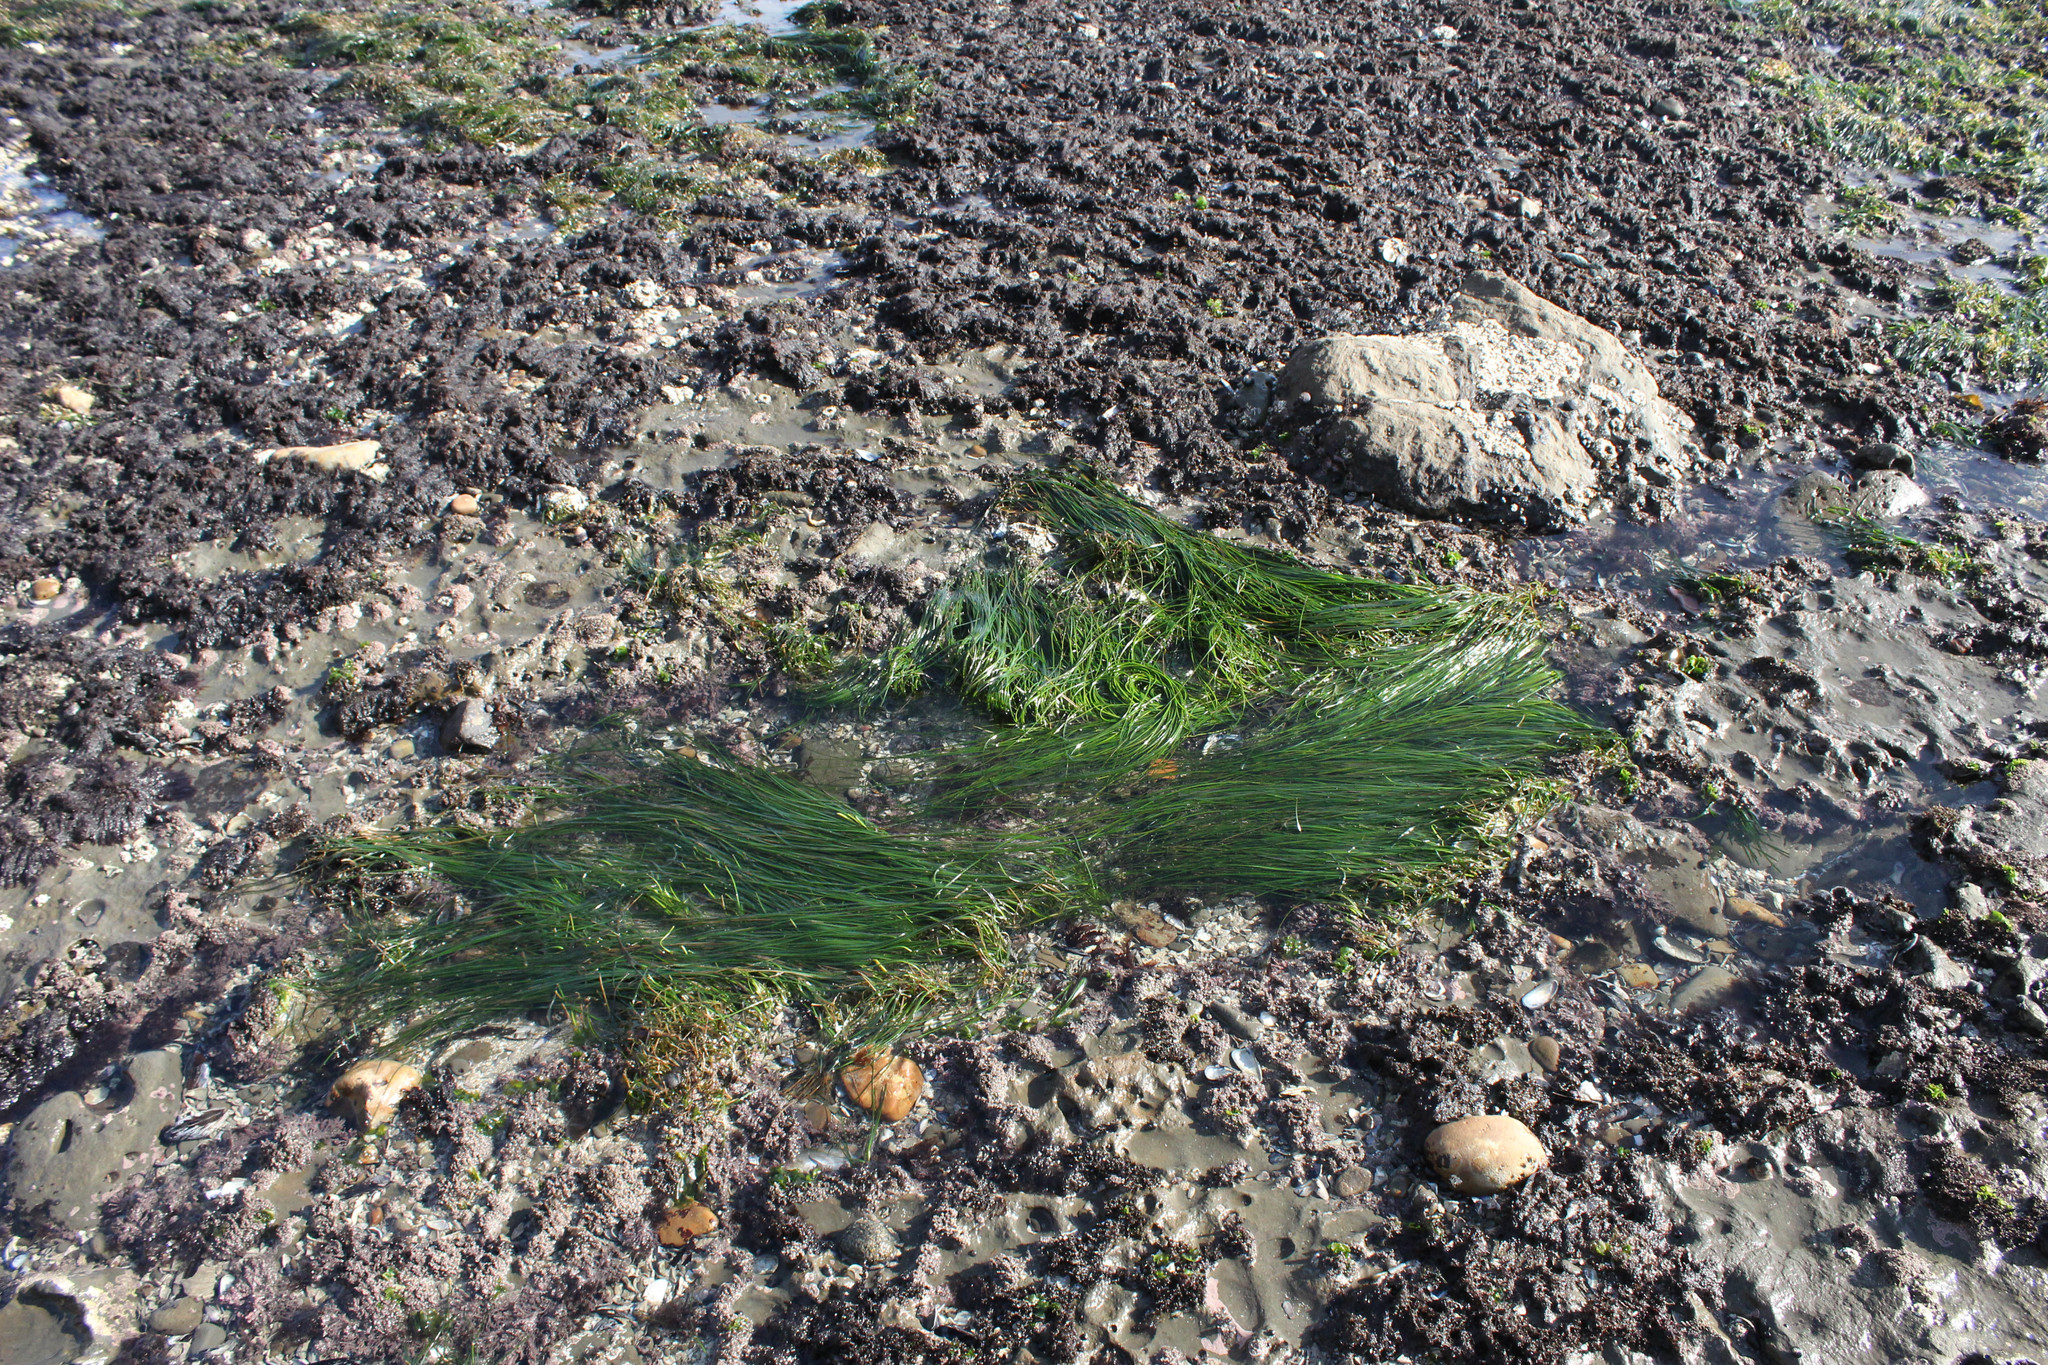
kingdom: Plantae
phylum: Tracheophyta
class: Liliopsida
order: Alismatales
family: Zosteraceae
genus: Phyllospadix
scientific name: Phyllospadix torreyi
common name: Surfgrass
